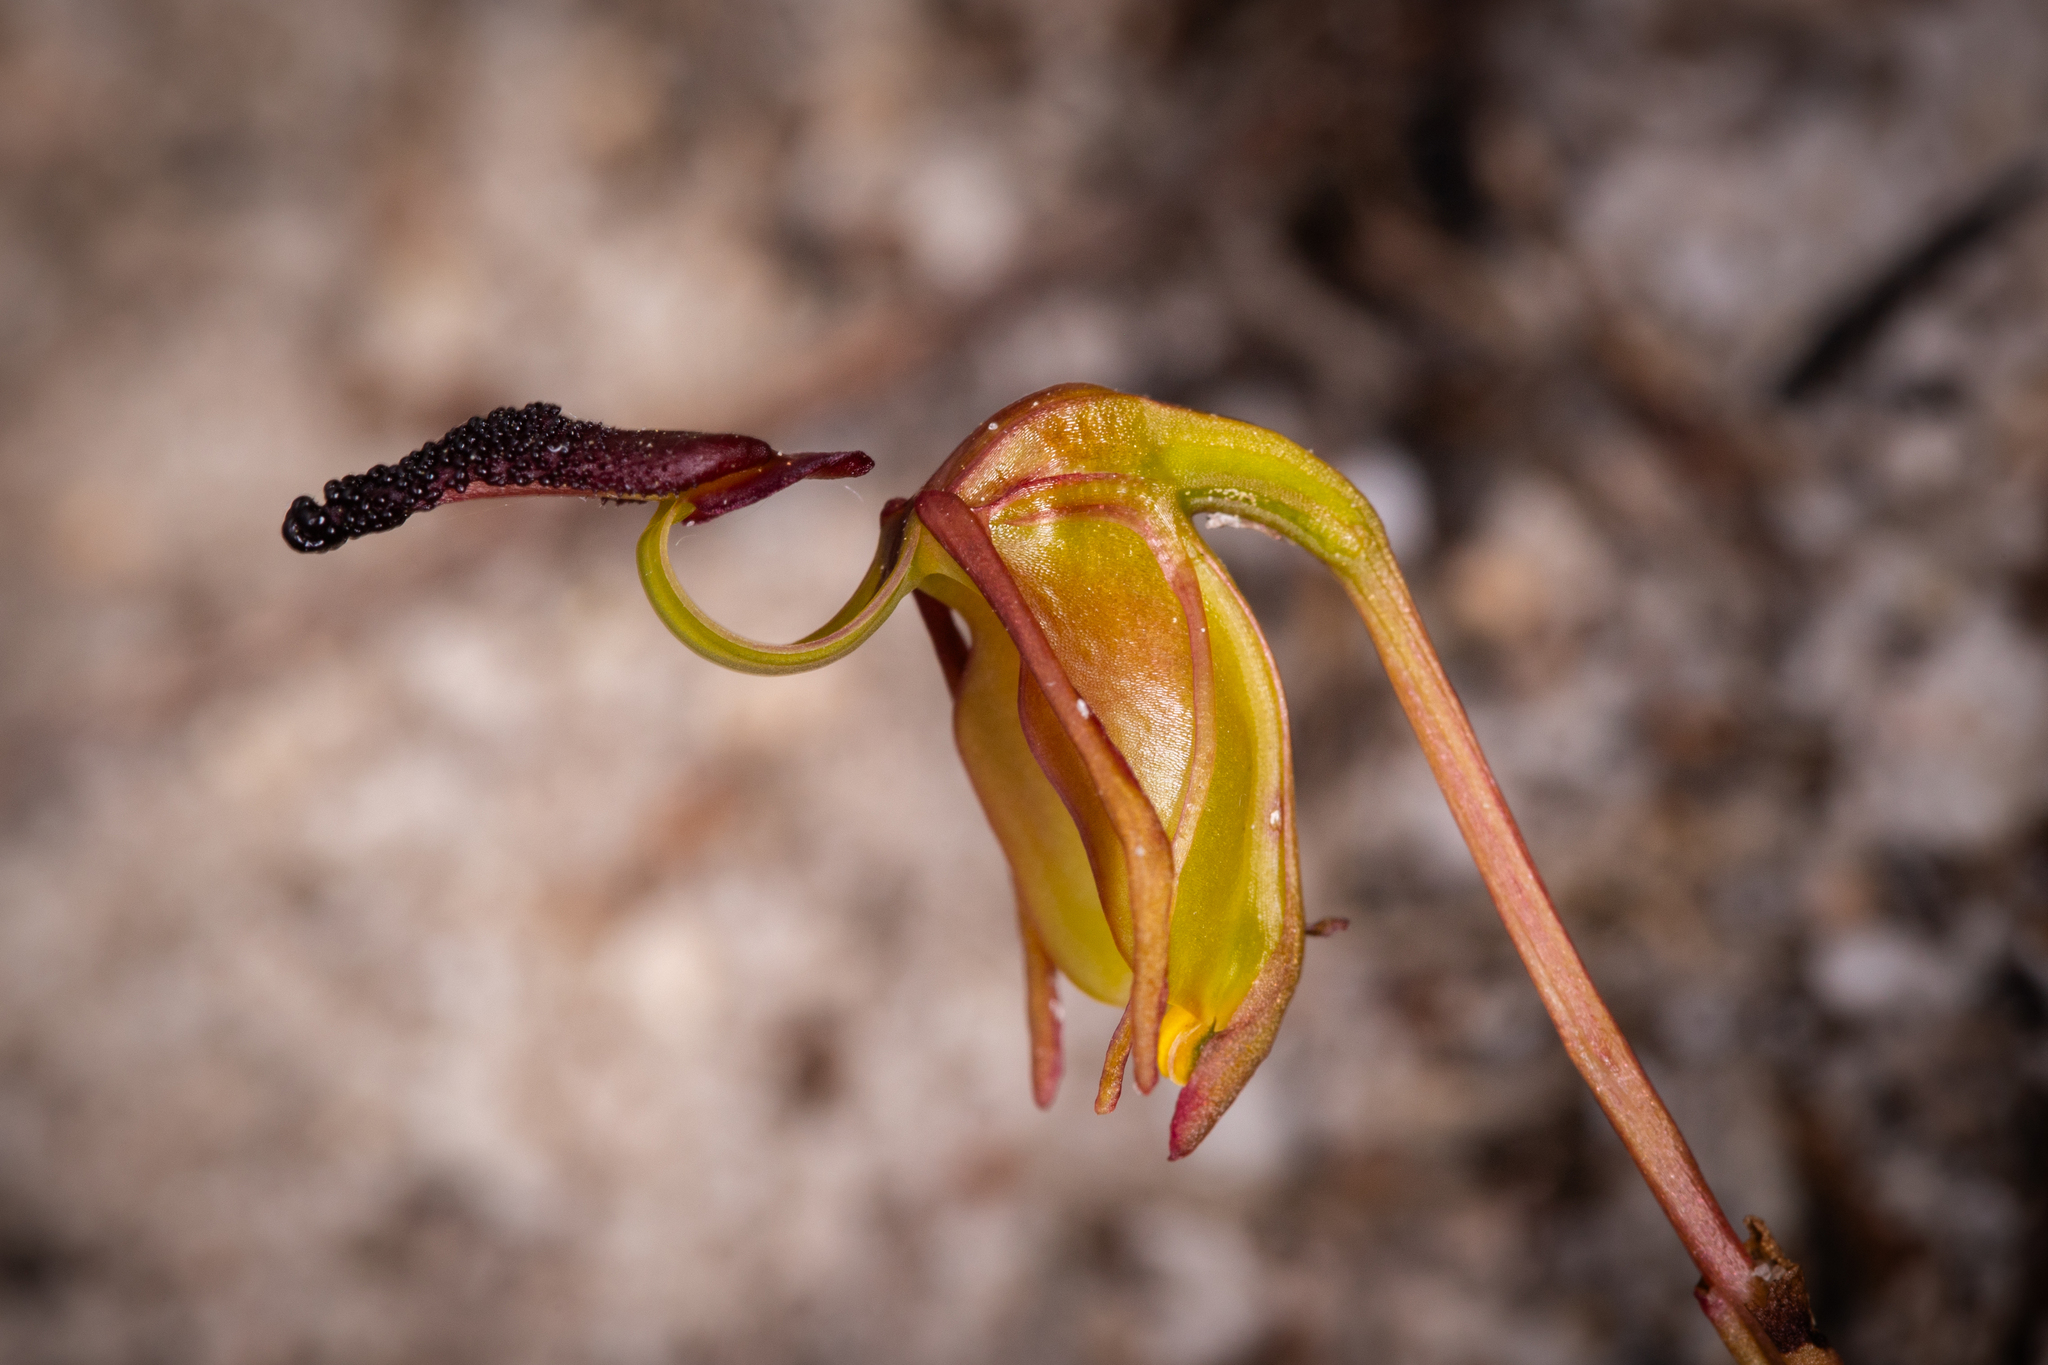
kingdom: Plantae
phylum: Tracheophyta
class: Liliopsida
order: Asparagales
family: Orchidaceae
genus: Caleana
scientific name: Caleana nigrita
